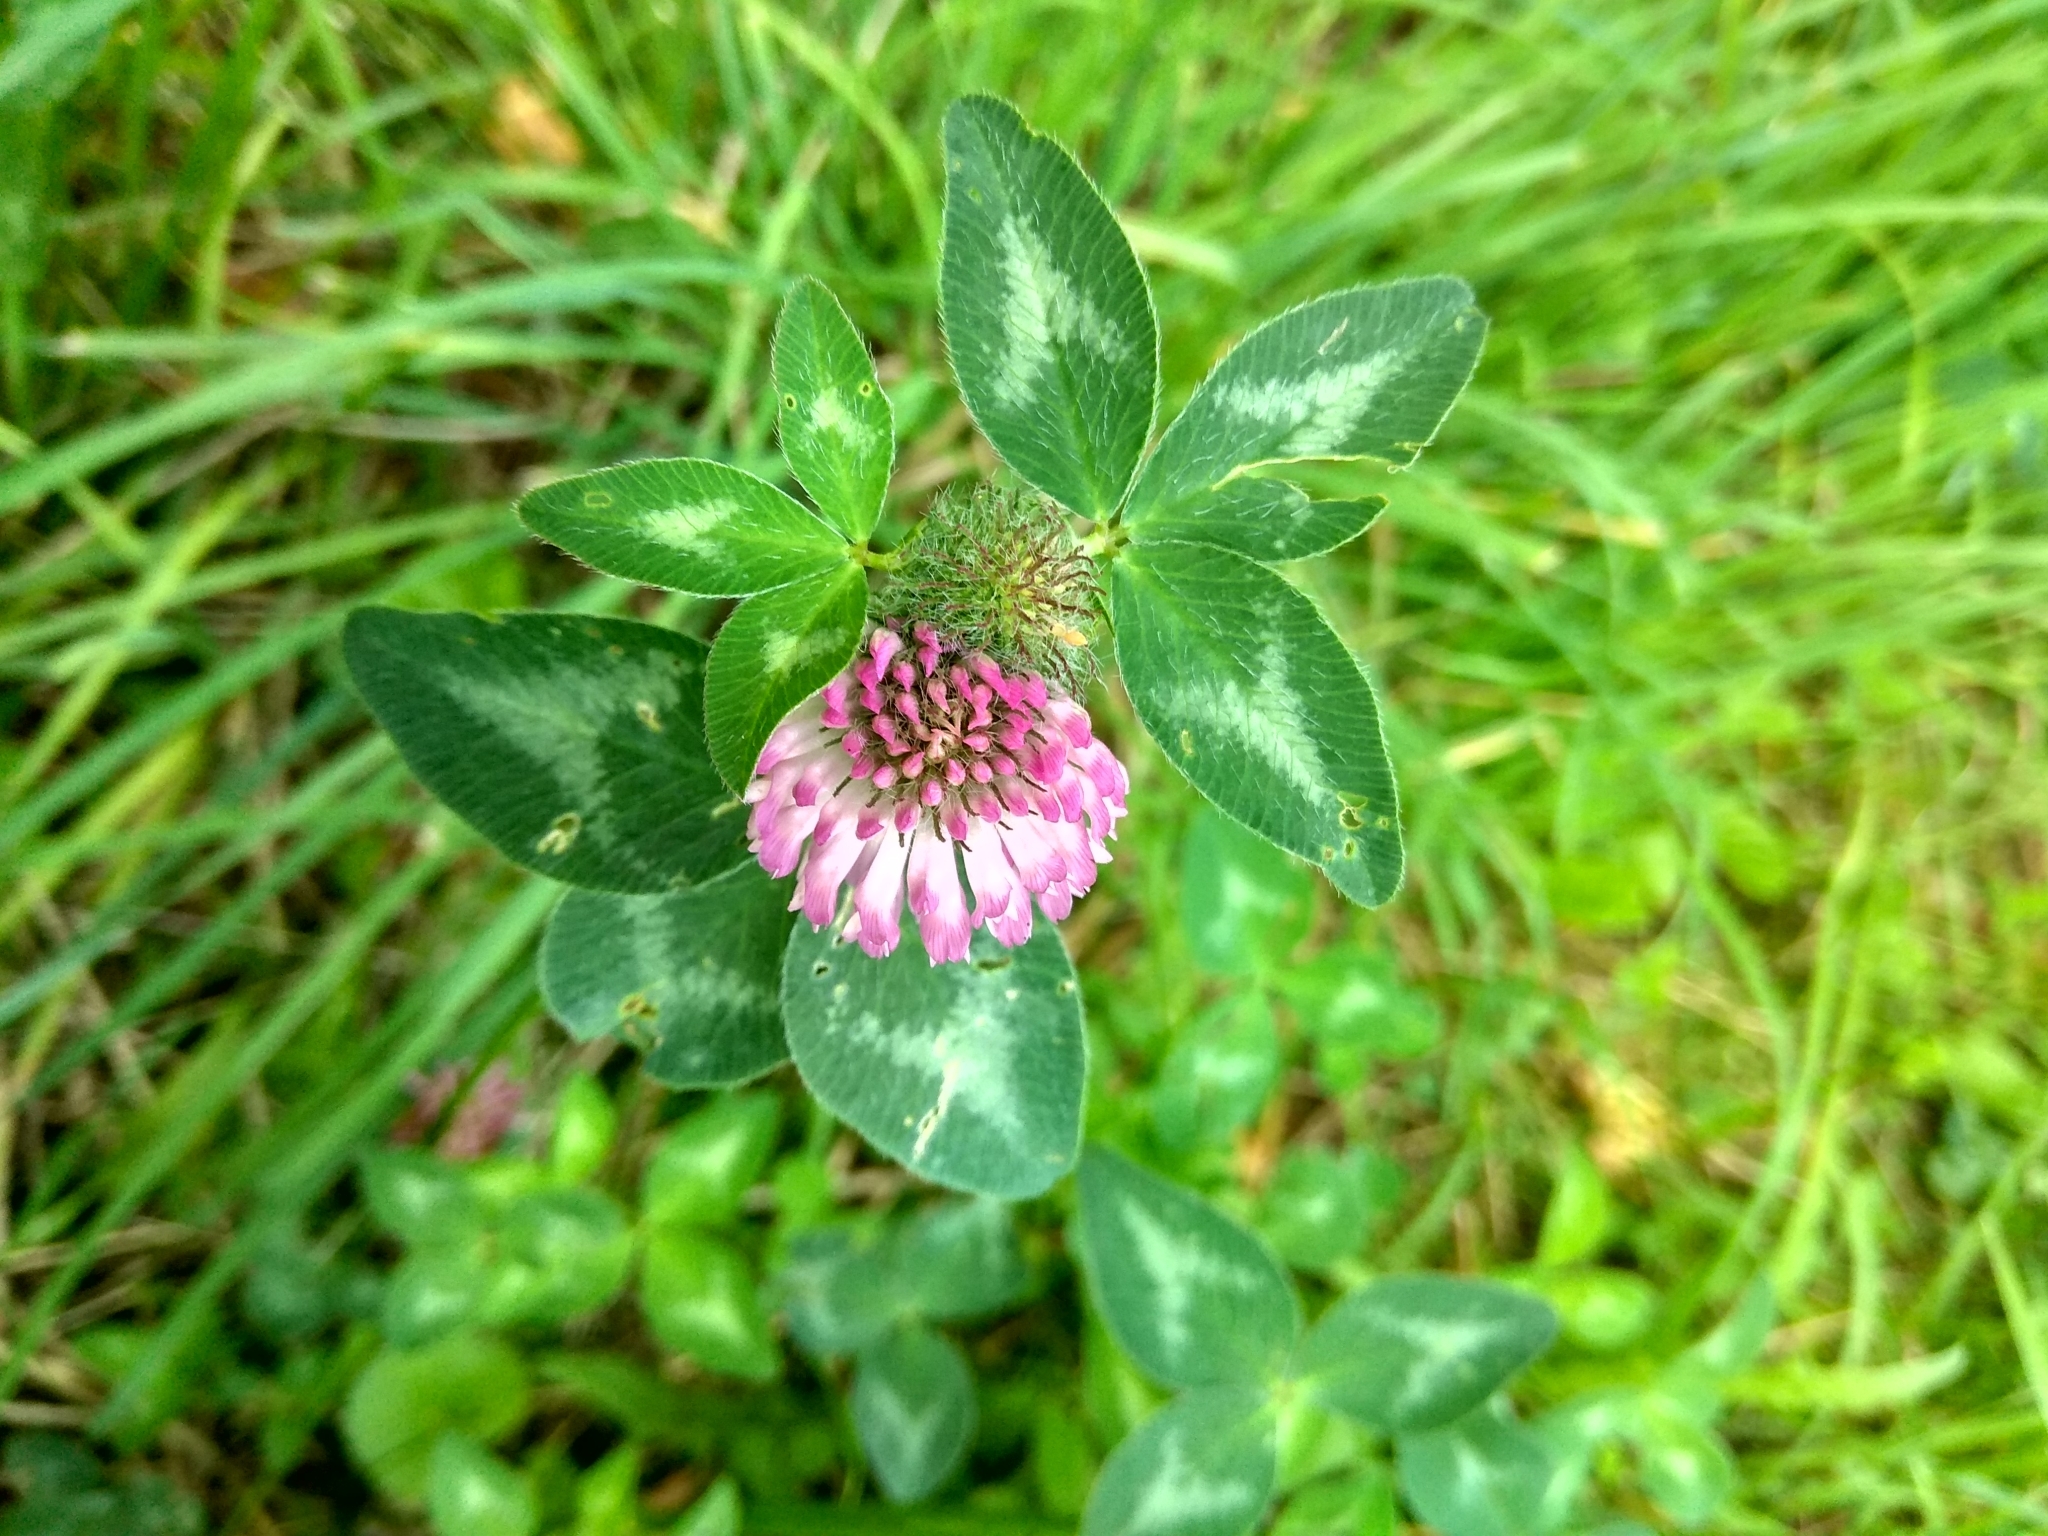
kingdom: Plantae
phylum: Tracheophyta
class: Magnoliopsida
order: Fabales
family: Fabaceae
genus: Trifolium
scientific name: Trifolium pratense
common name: Red clover
